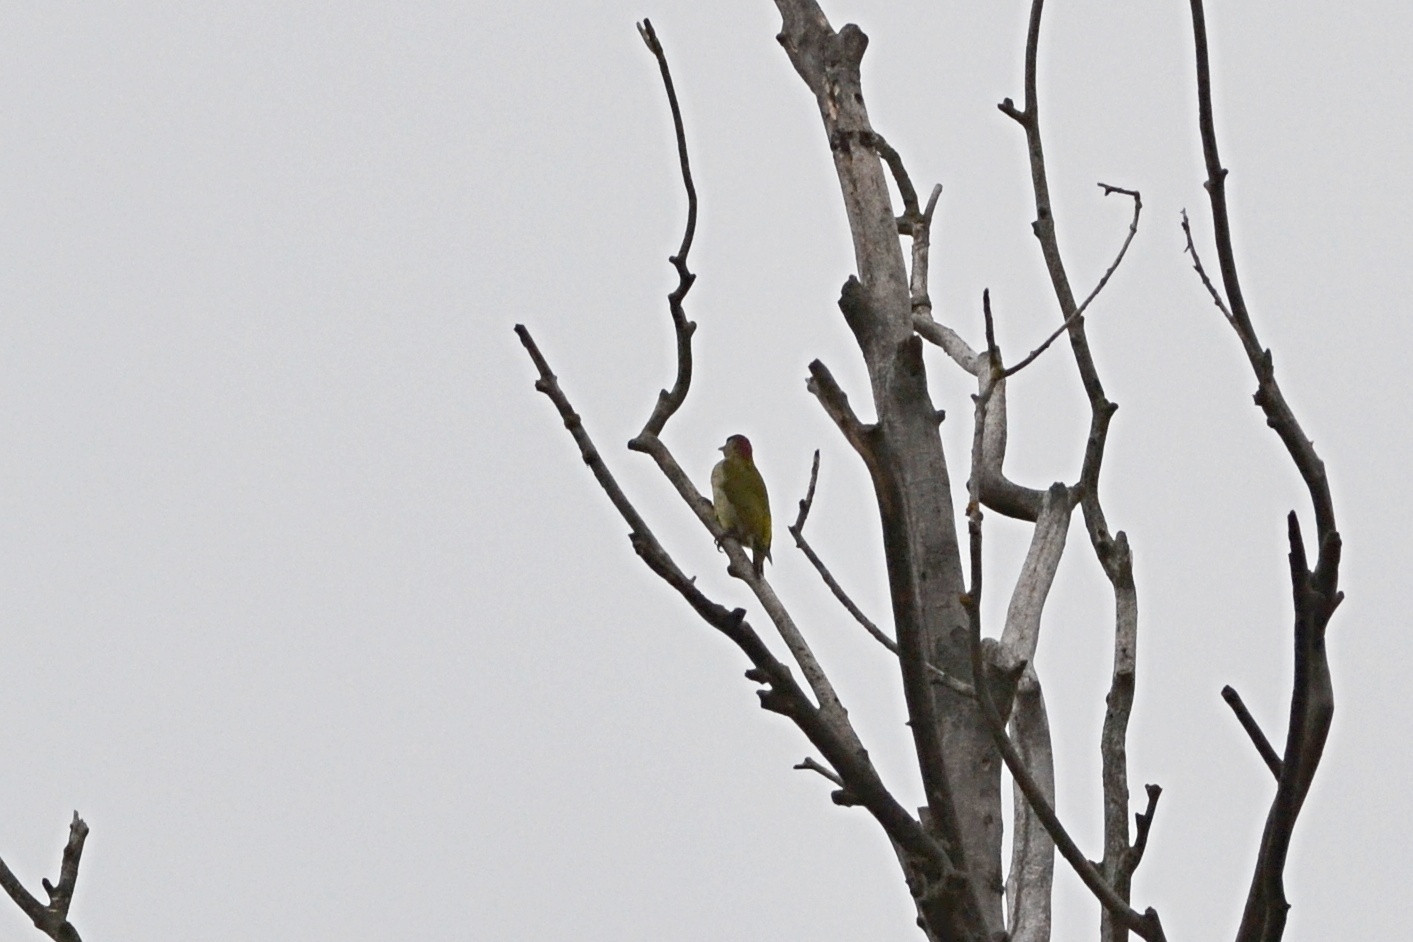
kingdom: Animalia
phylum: Chordata
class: Aves
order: Piciformes
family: Picidae
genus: Picus
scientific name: Picus viridis
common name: European green woodpecker
